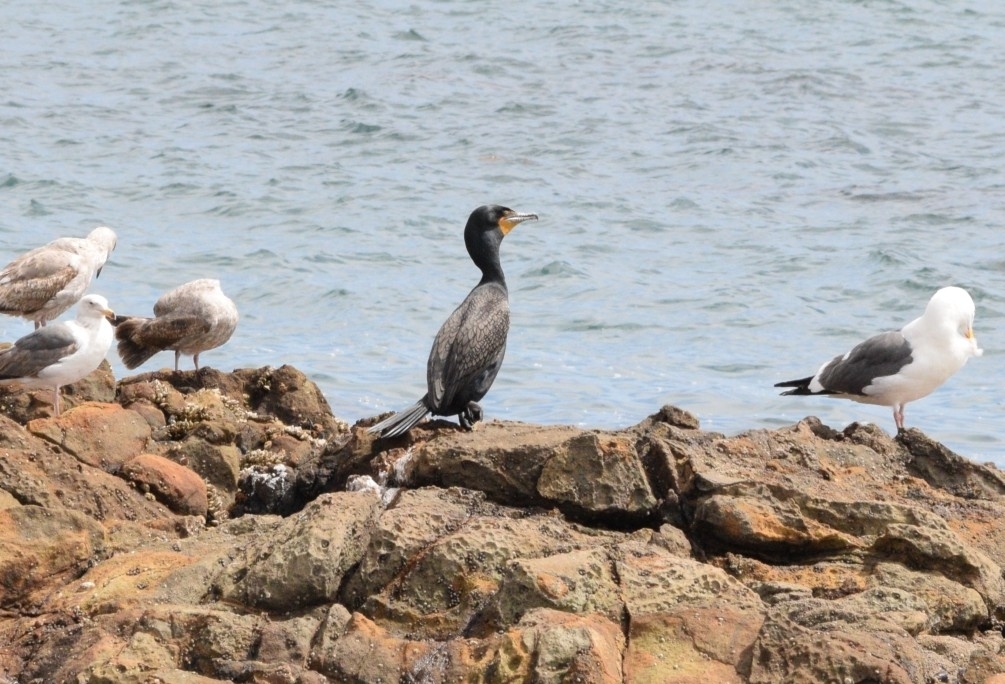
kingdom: Animalia
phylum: Chordata
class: Aves
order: Suliformes
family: Phalacrocoracidae
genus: Phalacrocorax
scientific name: Phalacrocorax auritus
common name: Double-crested cormorant
